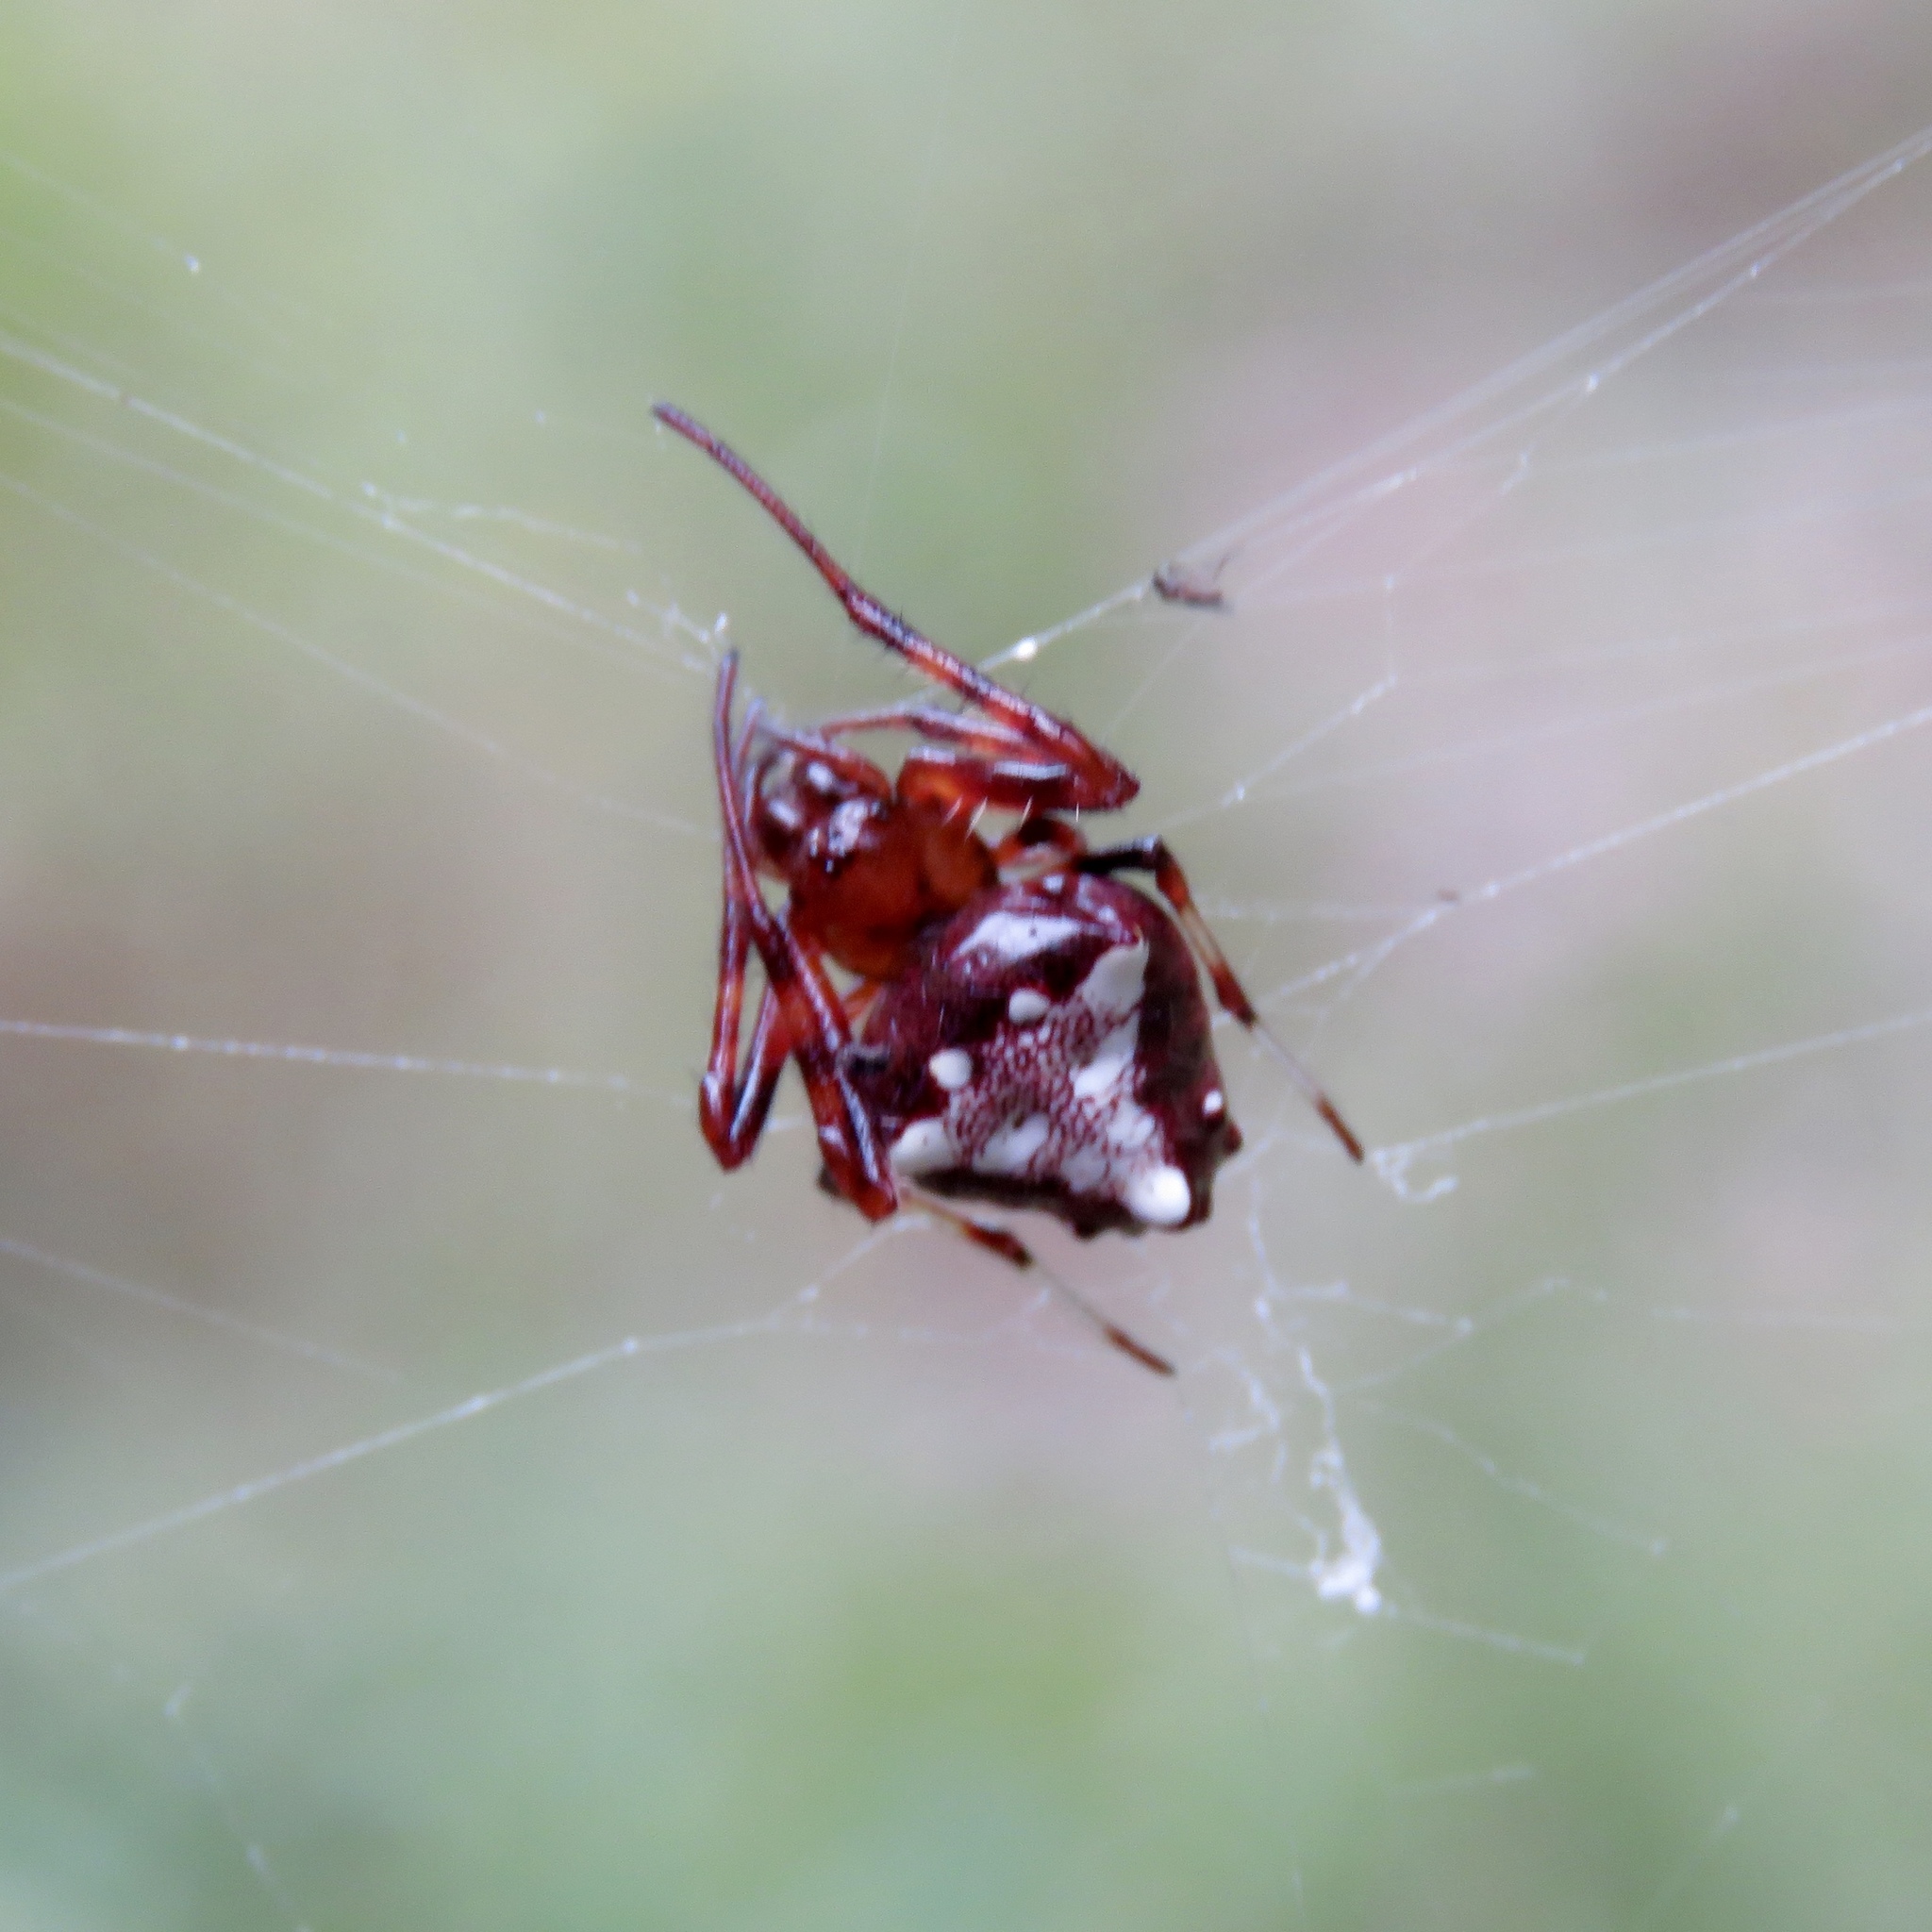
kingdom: Animalia
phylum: Arthropoda
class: Arachnida
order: Araneae
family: Araneidae
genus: Verrucosa
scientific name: Verrucosa arenata
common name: Orb weavers
